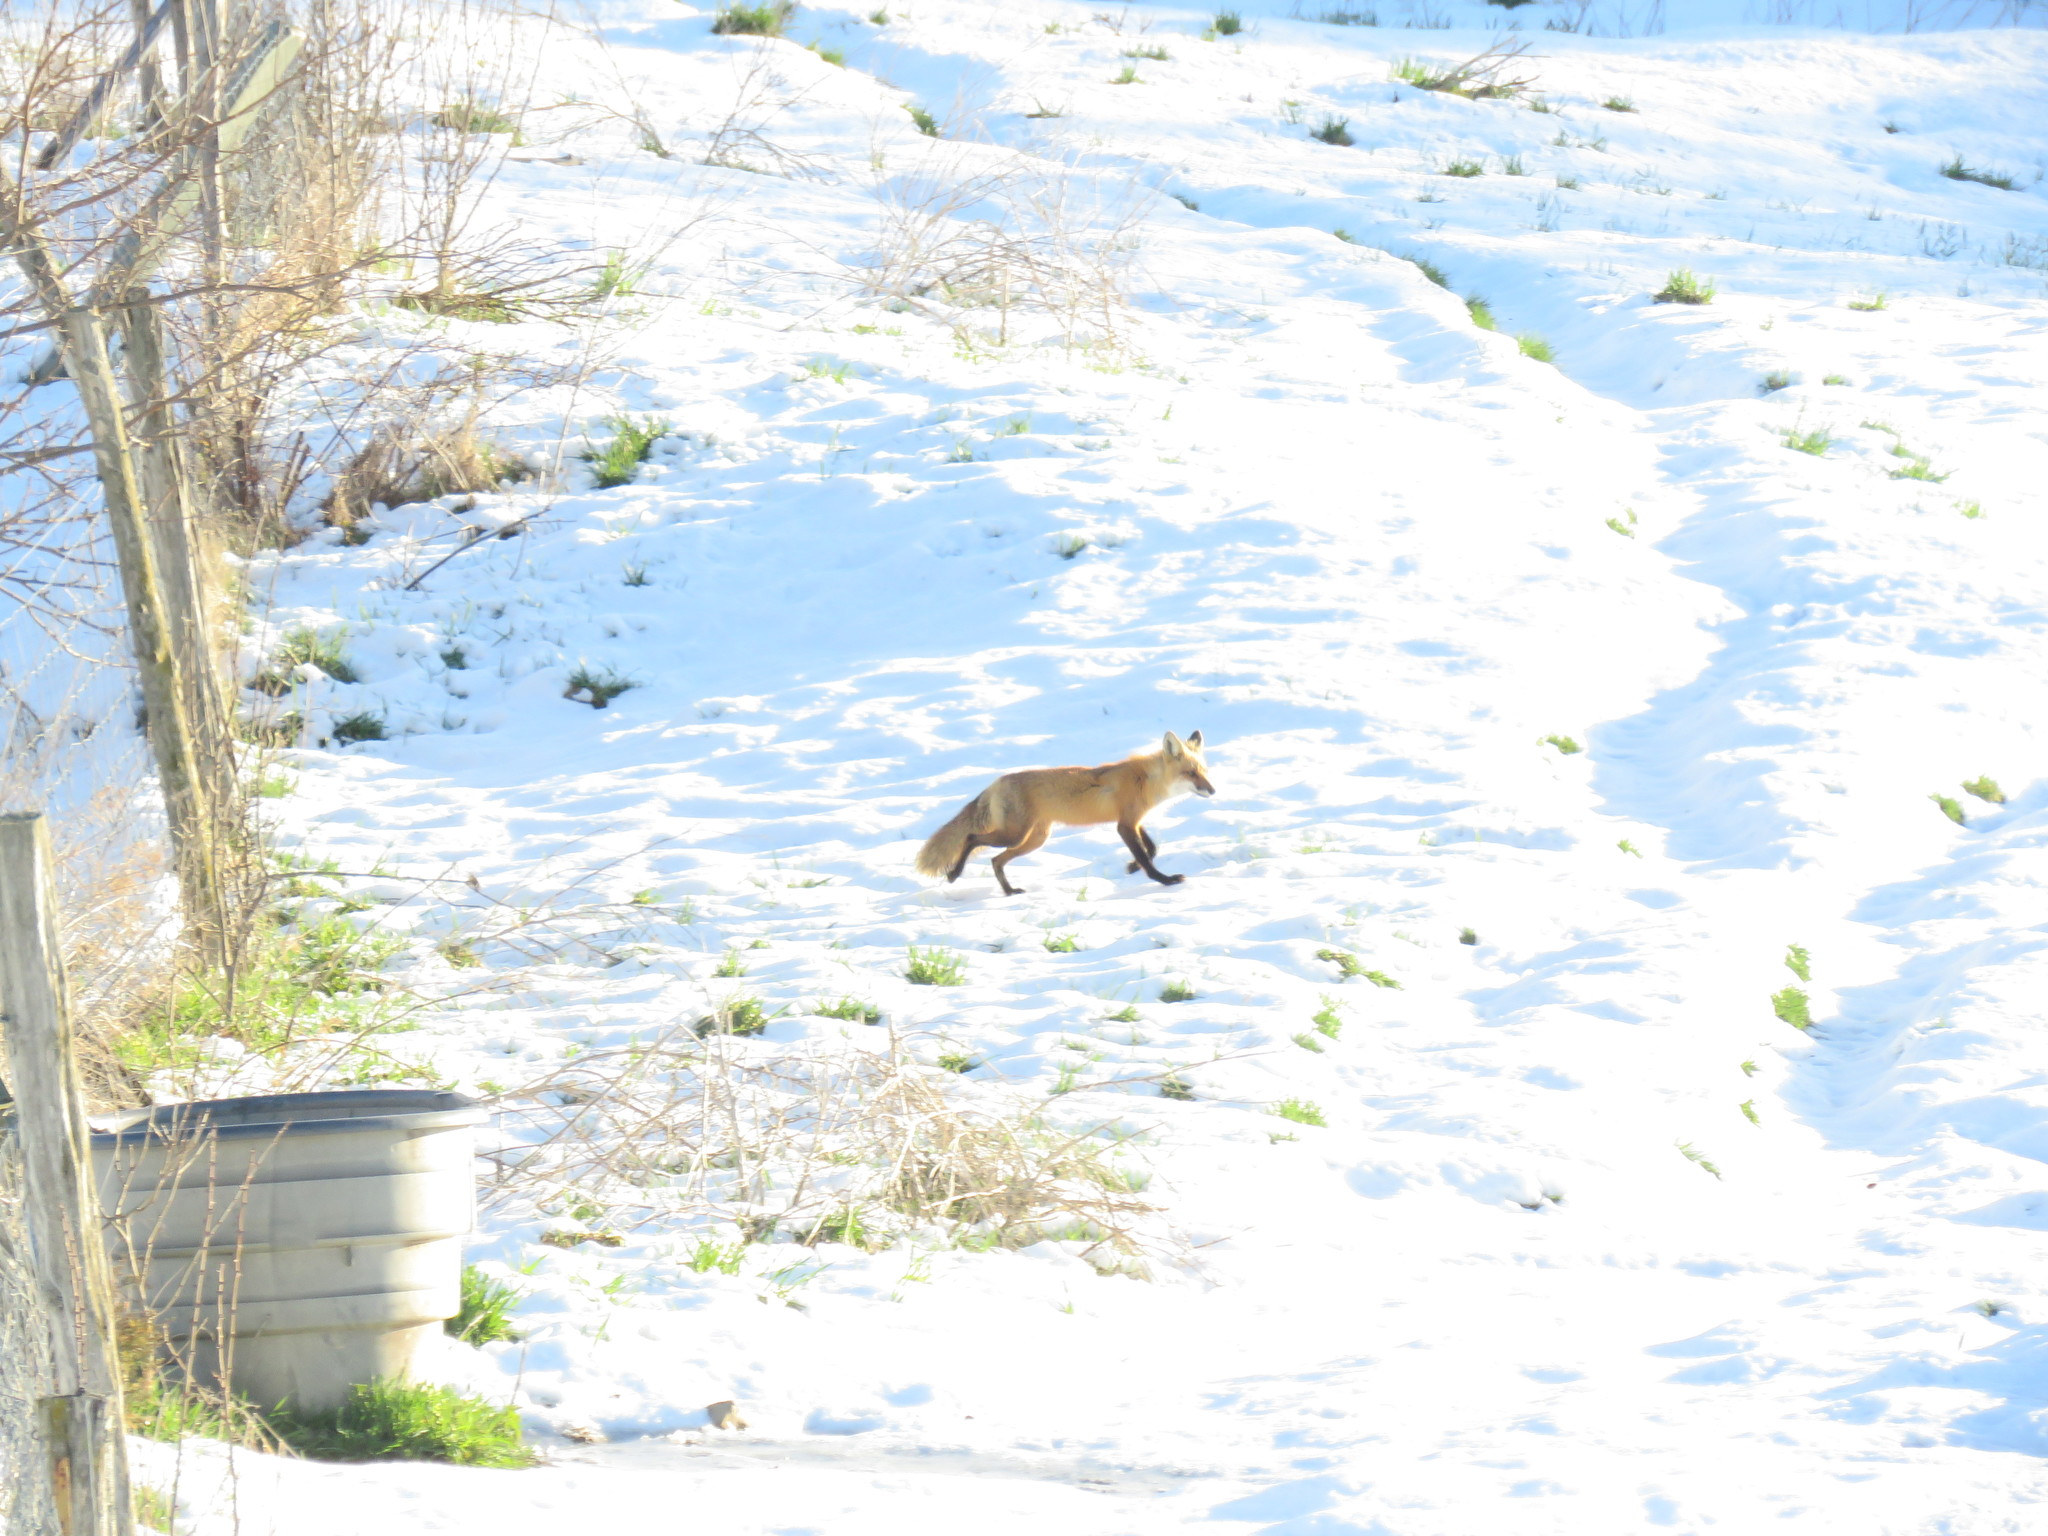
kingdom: Animalia
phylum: Chordata
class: Mammalia
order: Carnivora
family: Canidae
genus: Vulpes
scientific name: Vulpes vulpes
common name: Red fox
